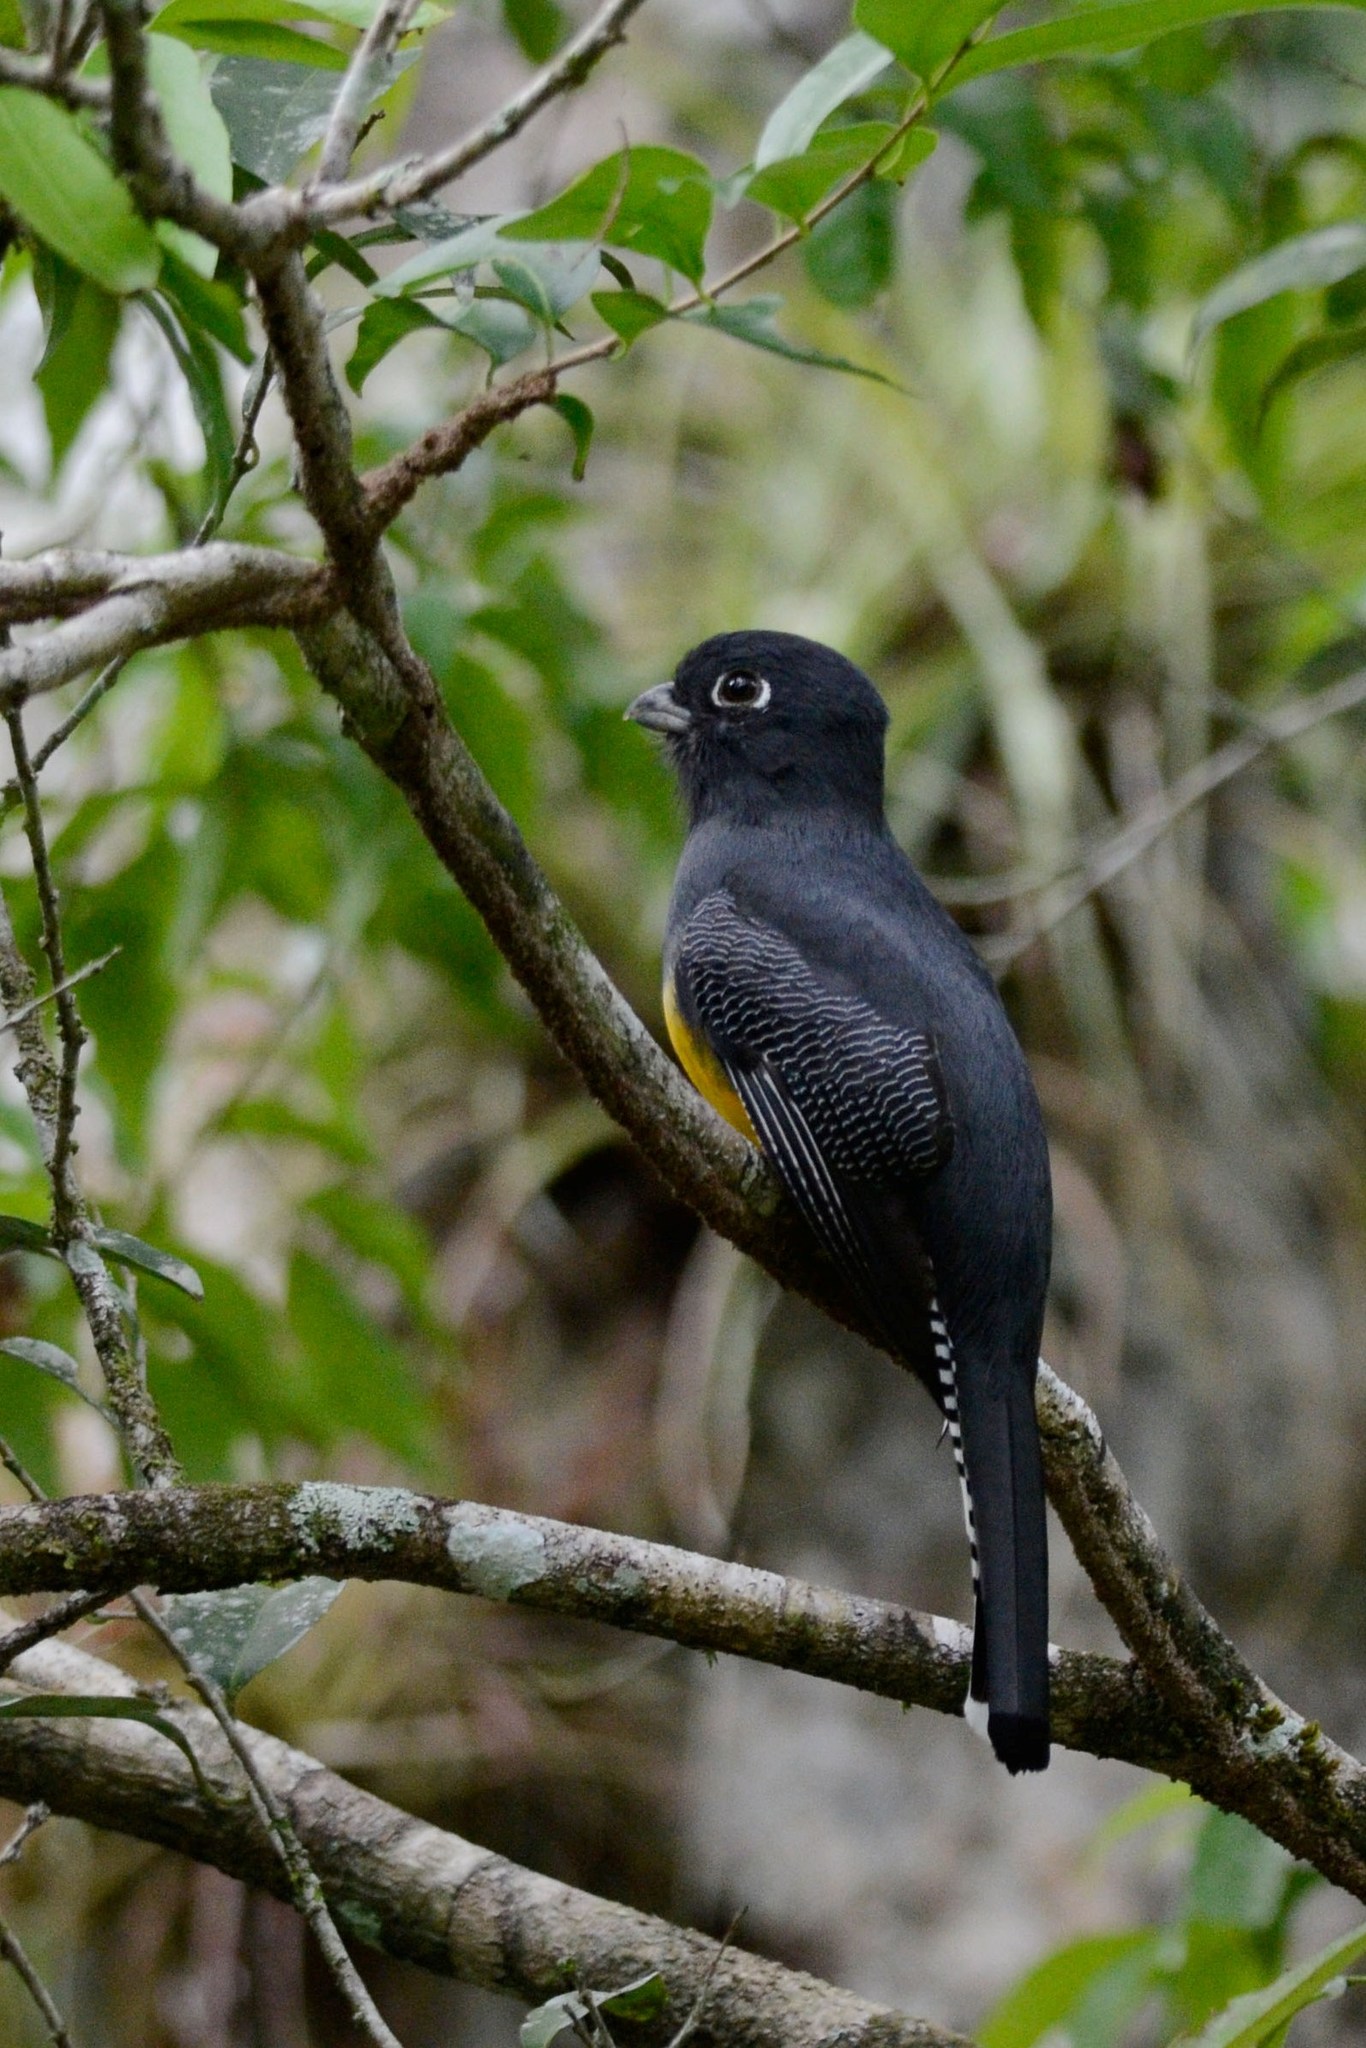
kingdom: Animalia
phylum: Chordata
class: Aves
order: Trogoniformes
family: Trogonidae
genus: Trogon
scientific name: Trogon caligatus
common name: Gartered trogon
